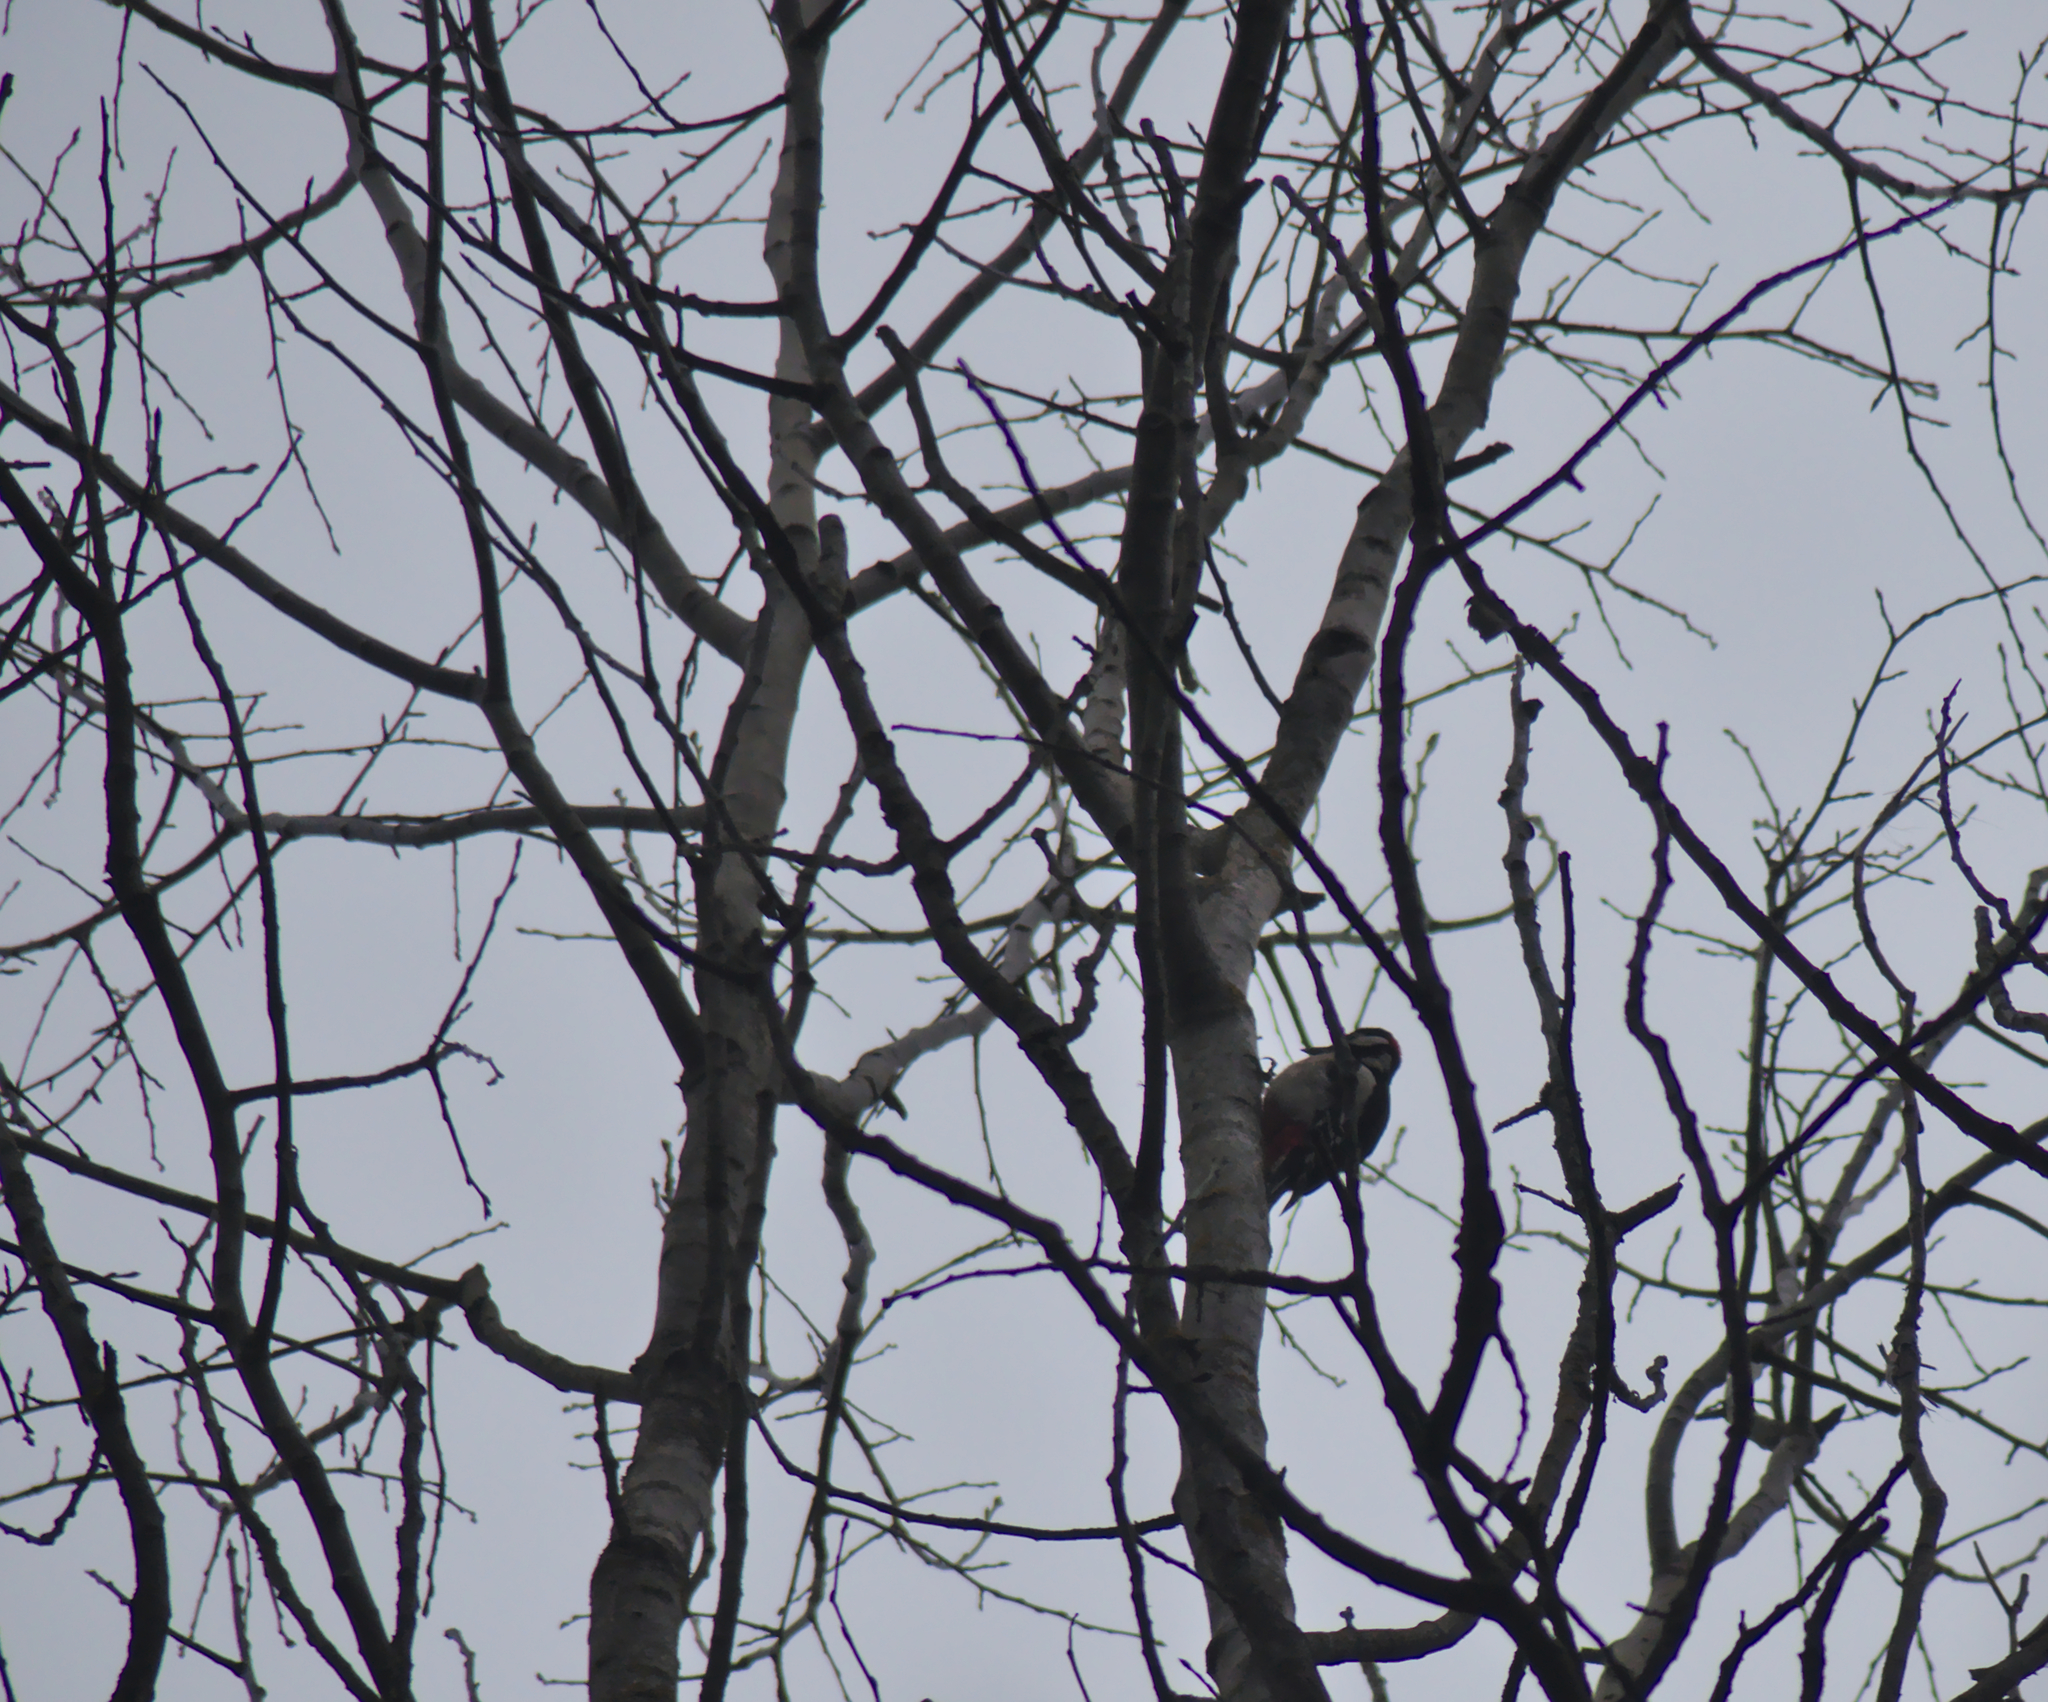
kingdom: Animalia
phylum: Chordata
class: Aves
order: Piciformes
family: Picidae
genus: Dendrocopos
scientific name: Dendrocopos major
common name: Great spotted woodpecker
